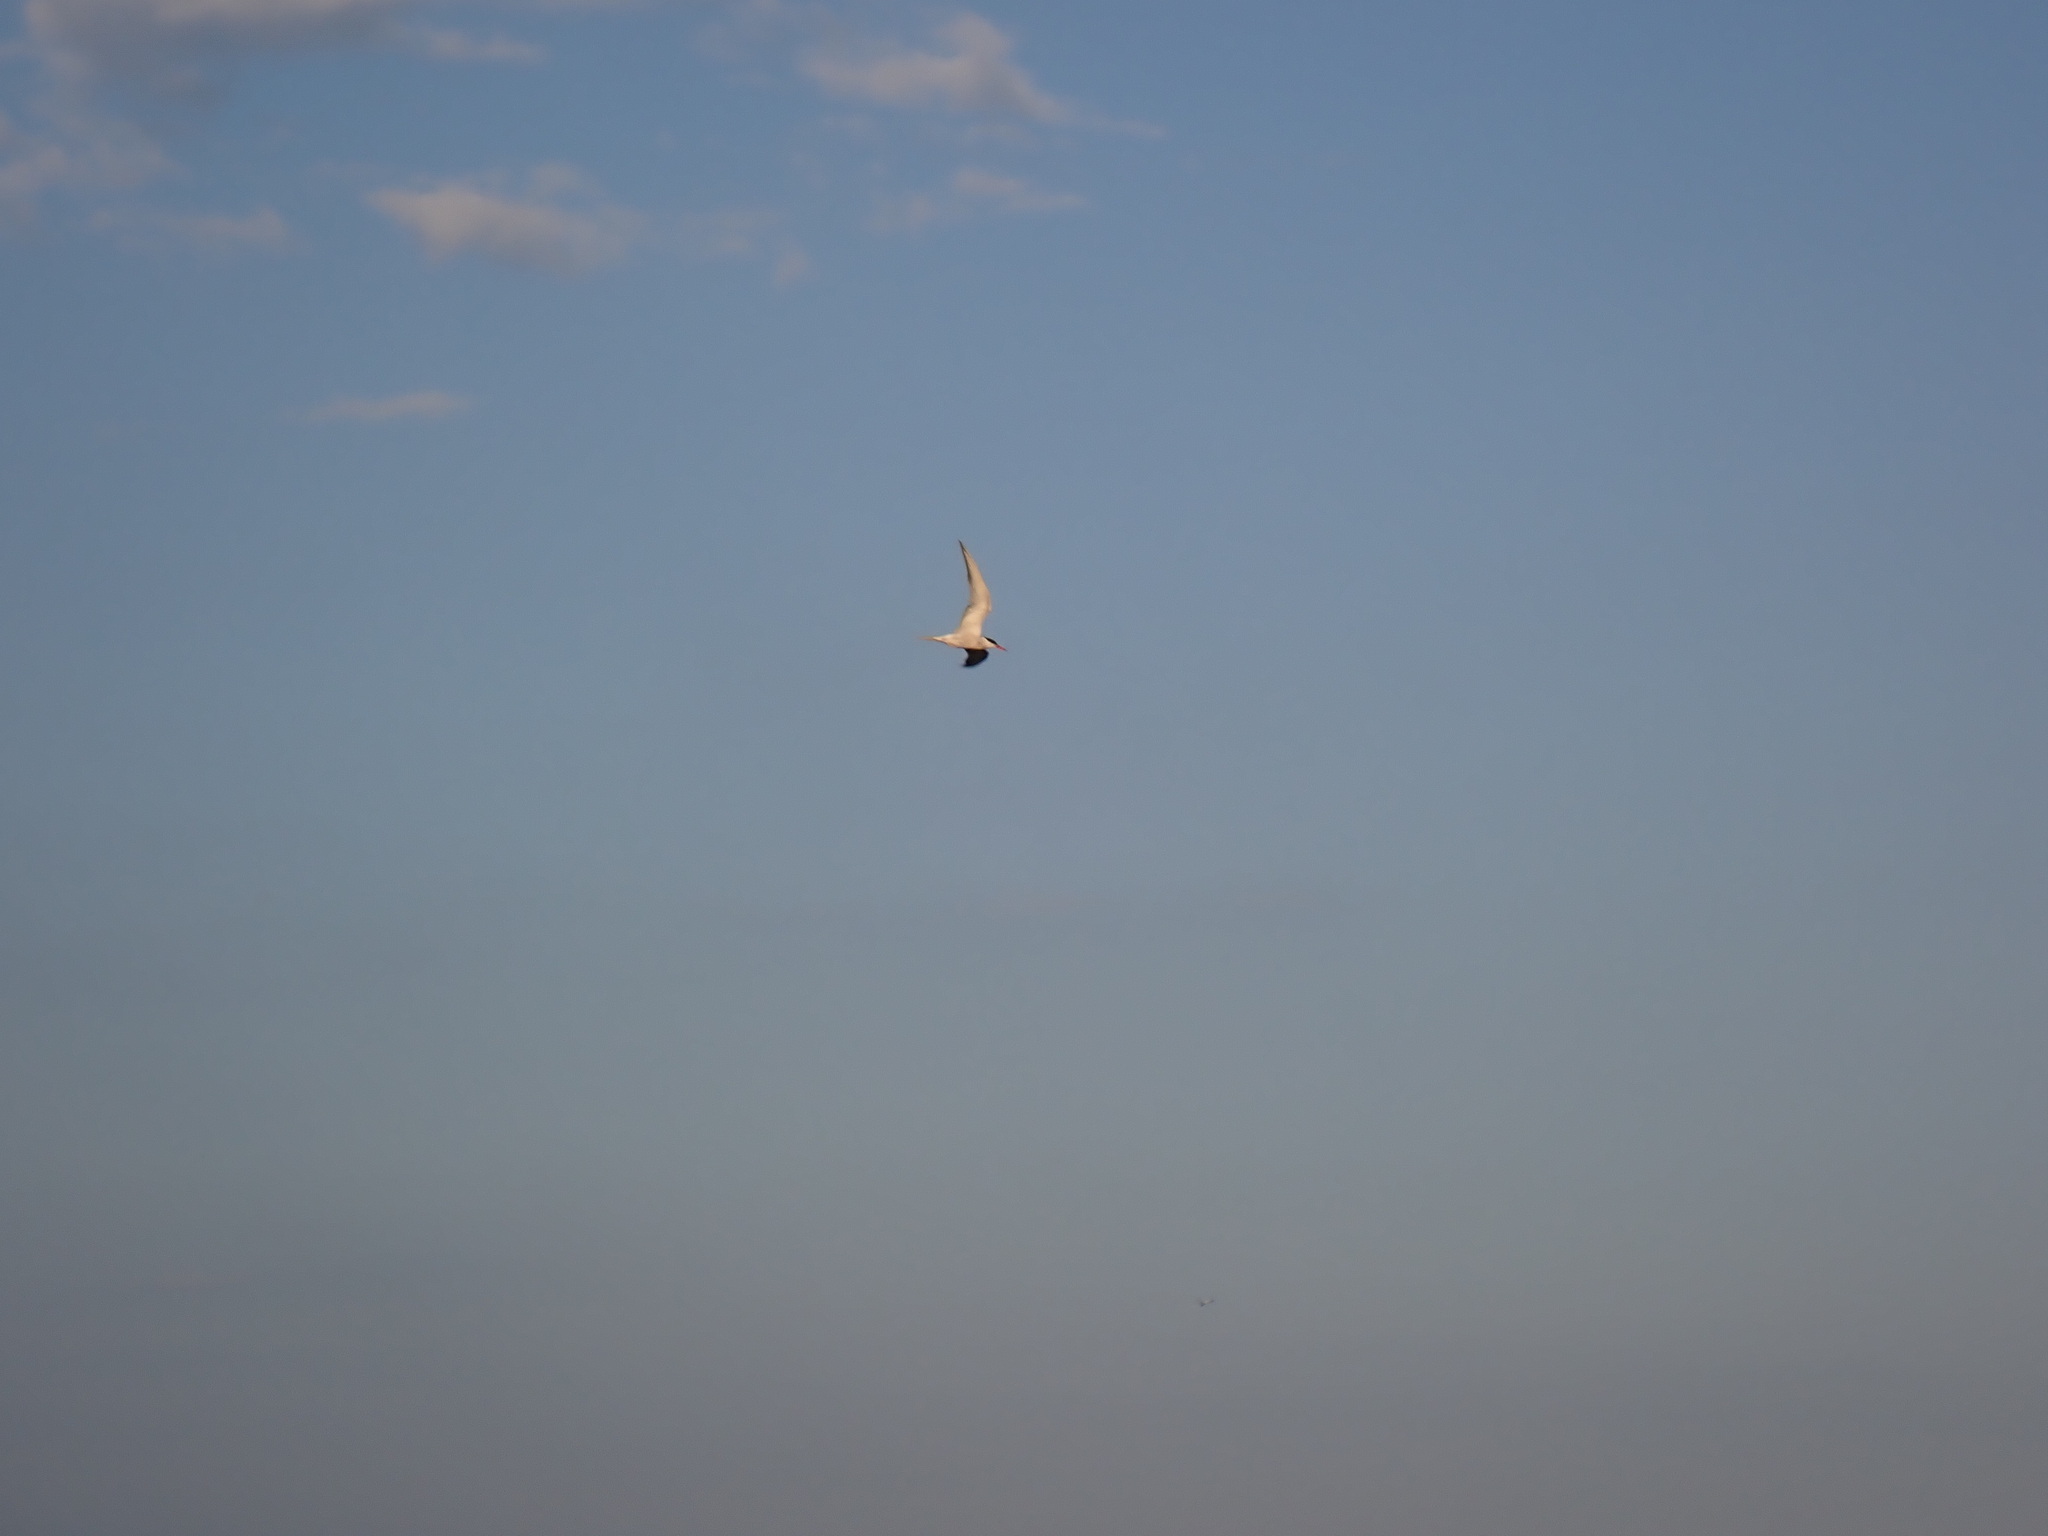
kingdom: Animalia
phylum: Chordata
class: Aves
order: Charadriiformes
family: Laridae
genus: Sterna
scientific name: Sterna hirundo
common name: Common tern
